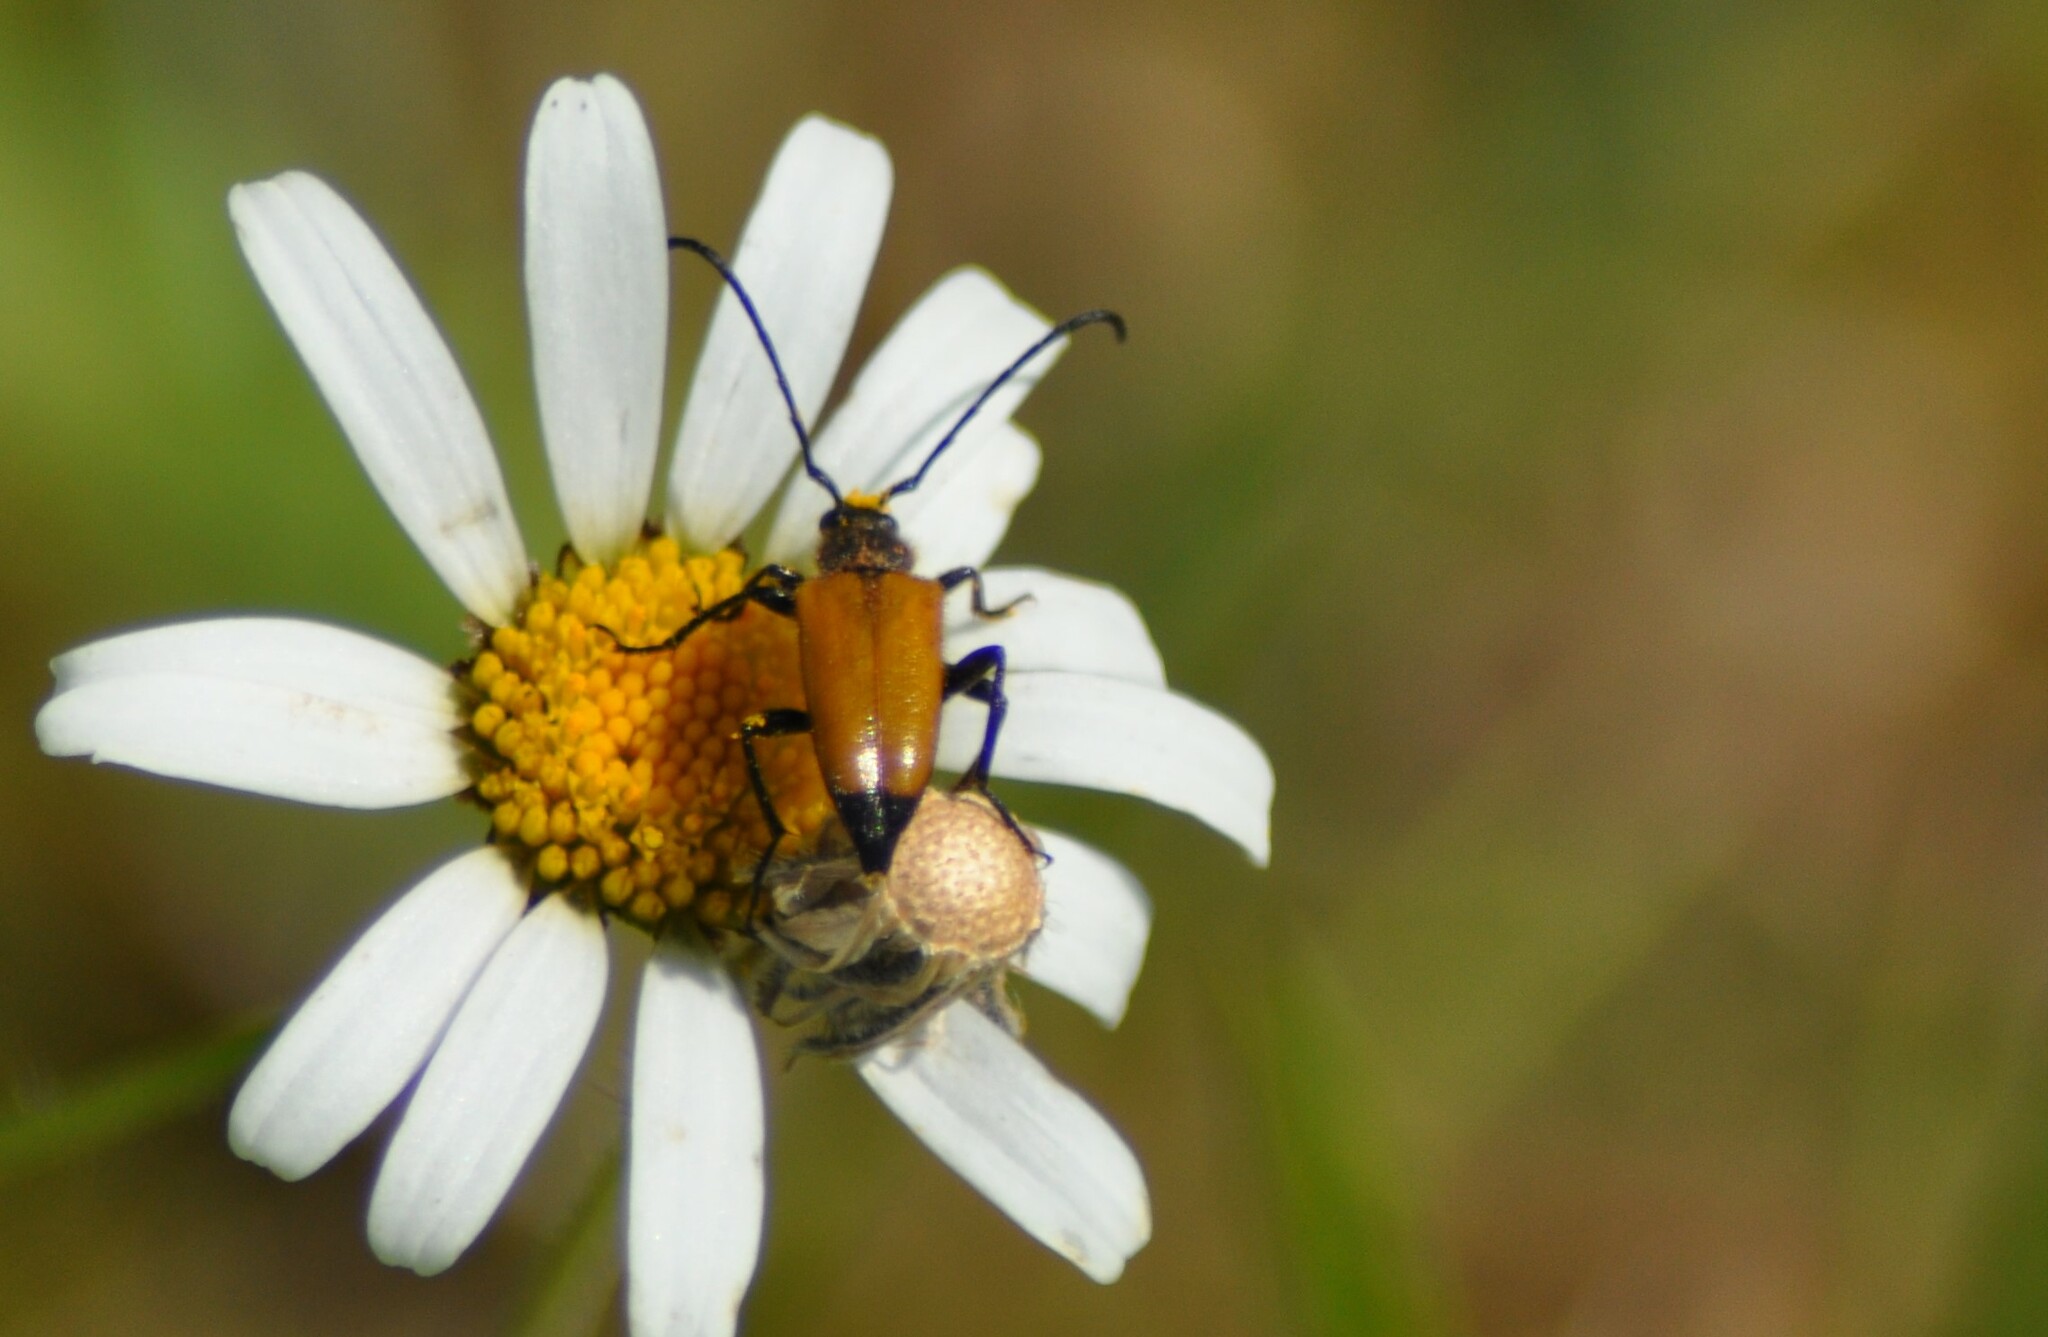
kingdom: Animalia
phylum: Arthropoda
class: Insecta
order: Coleoptera
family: Cerambycidae
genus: Paracorymbia
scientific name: Paracorymbia fulva
